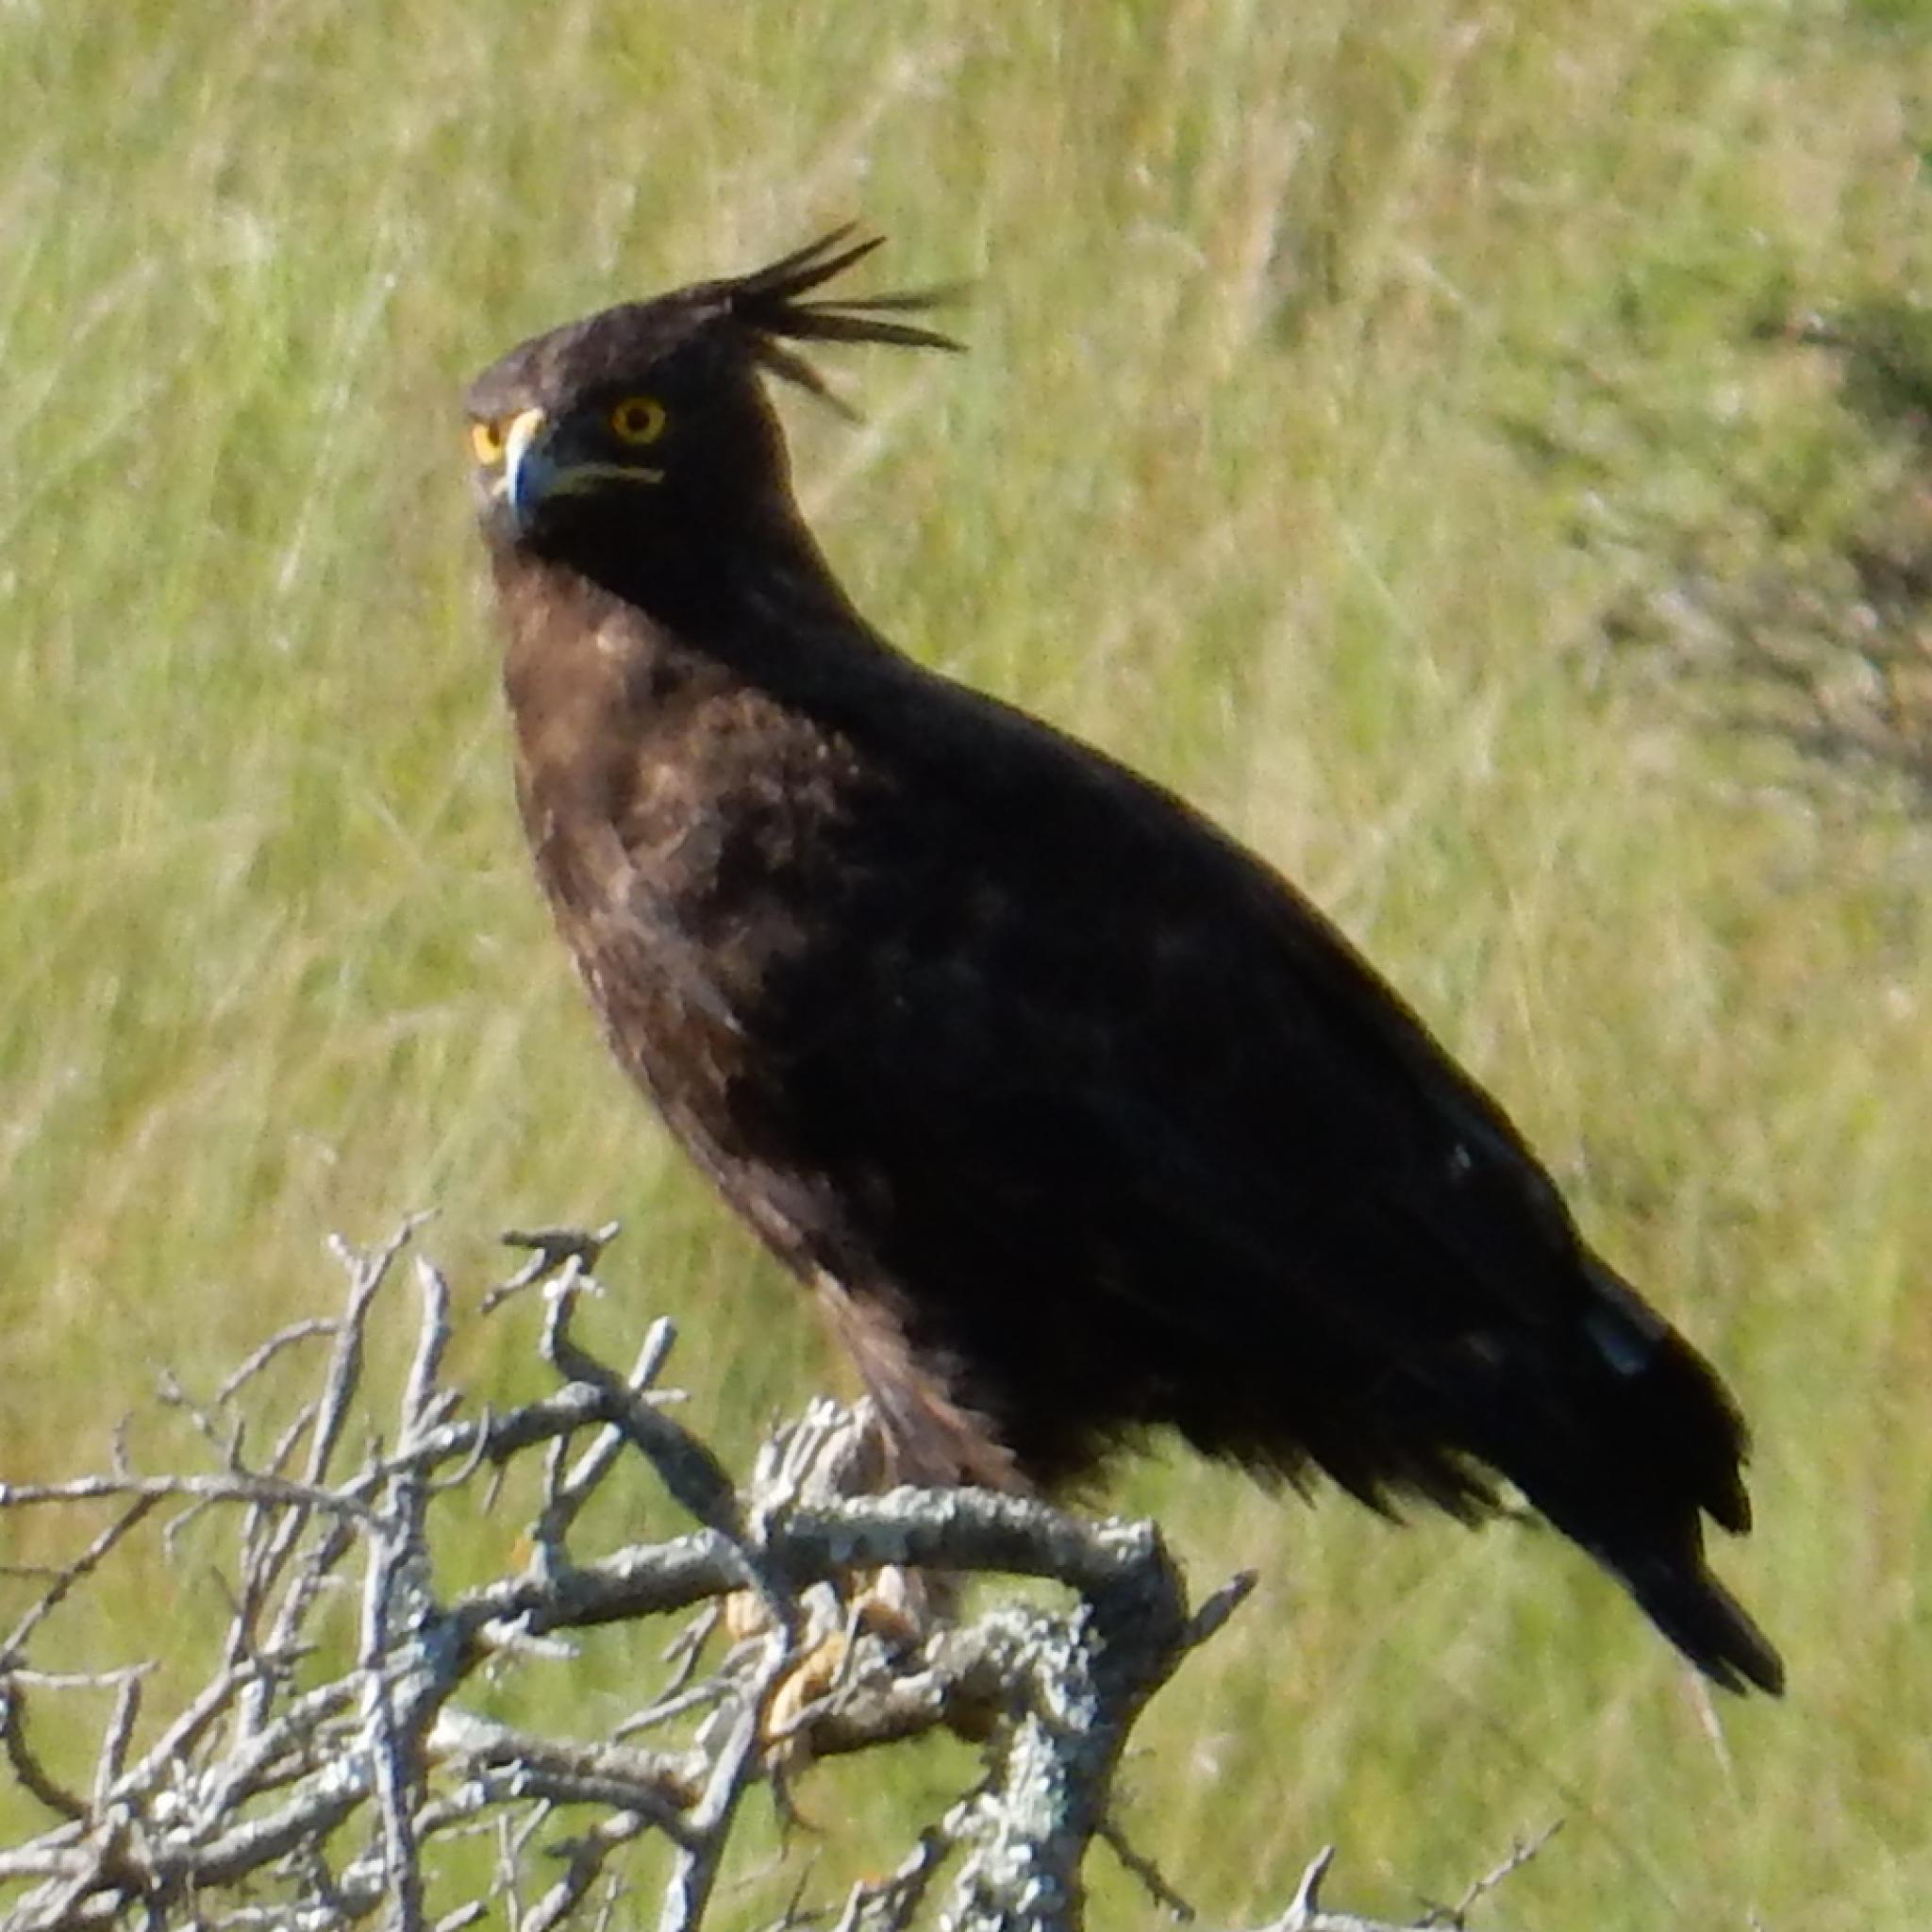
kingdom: Animalia
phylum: Chordata
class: Aves
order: Accipitriformes
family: Accipitridae
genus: Lophaetus
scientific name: Lophaetus occipitalis
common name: Long-crested eagle
